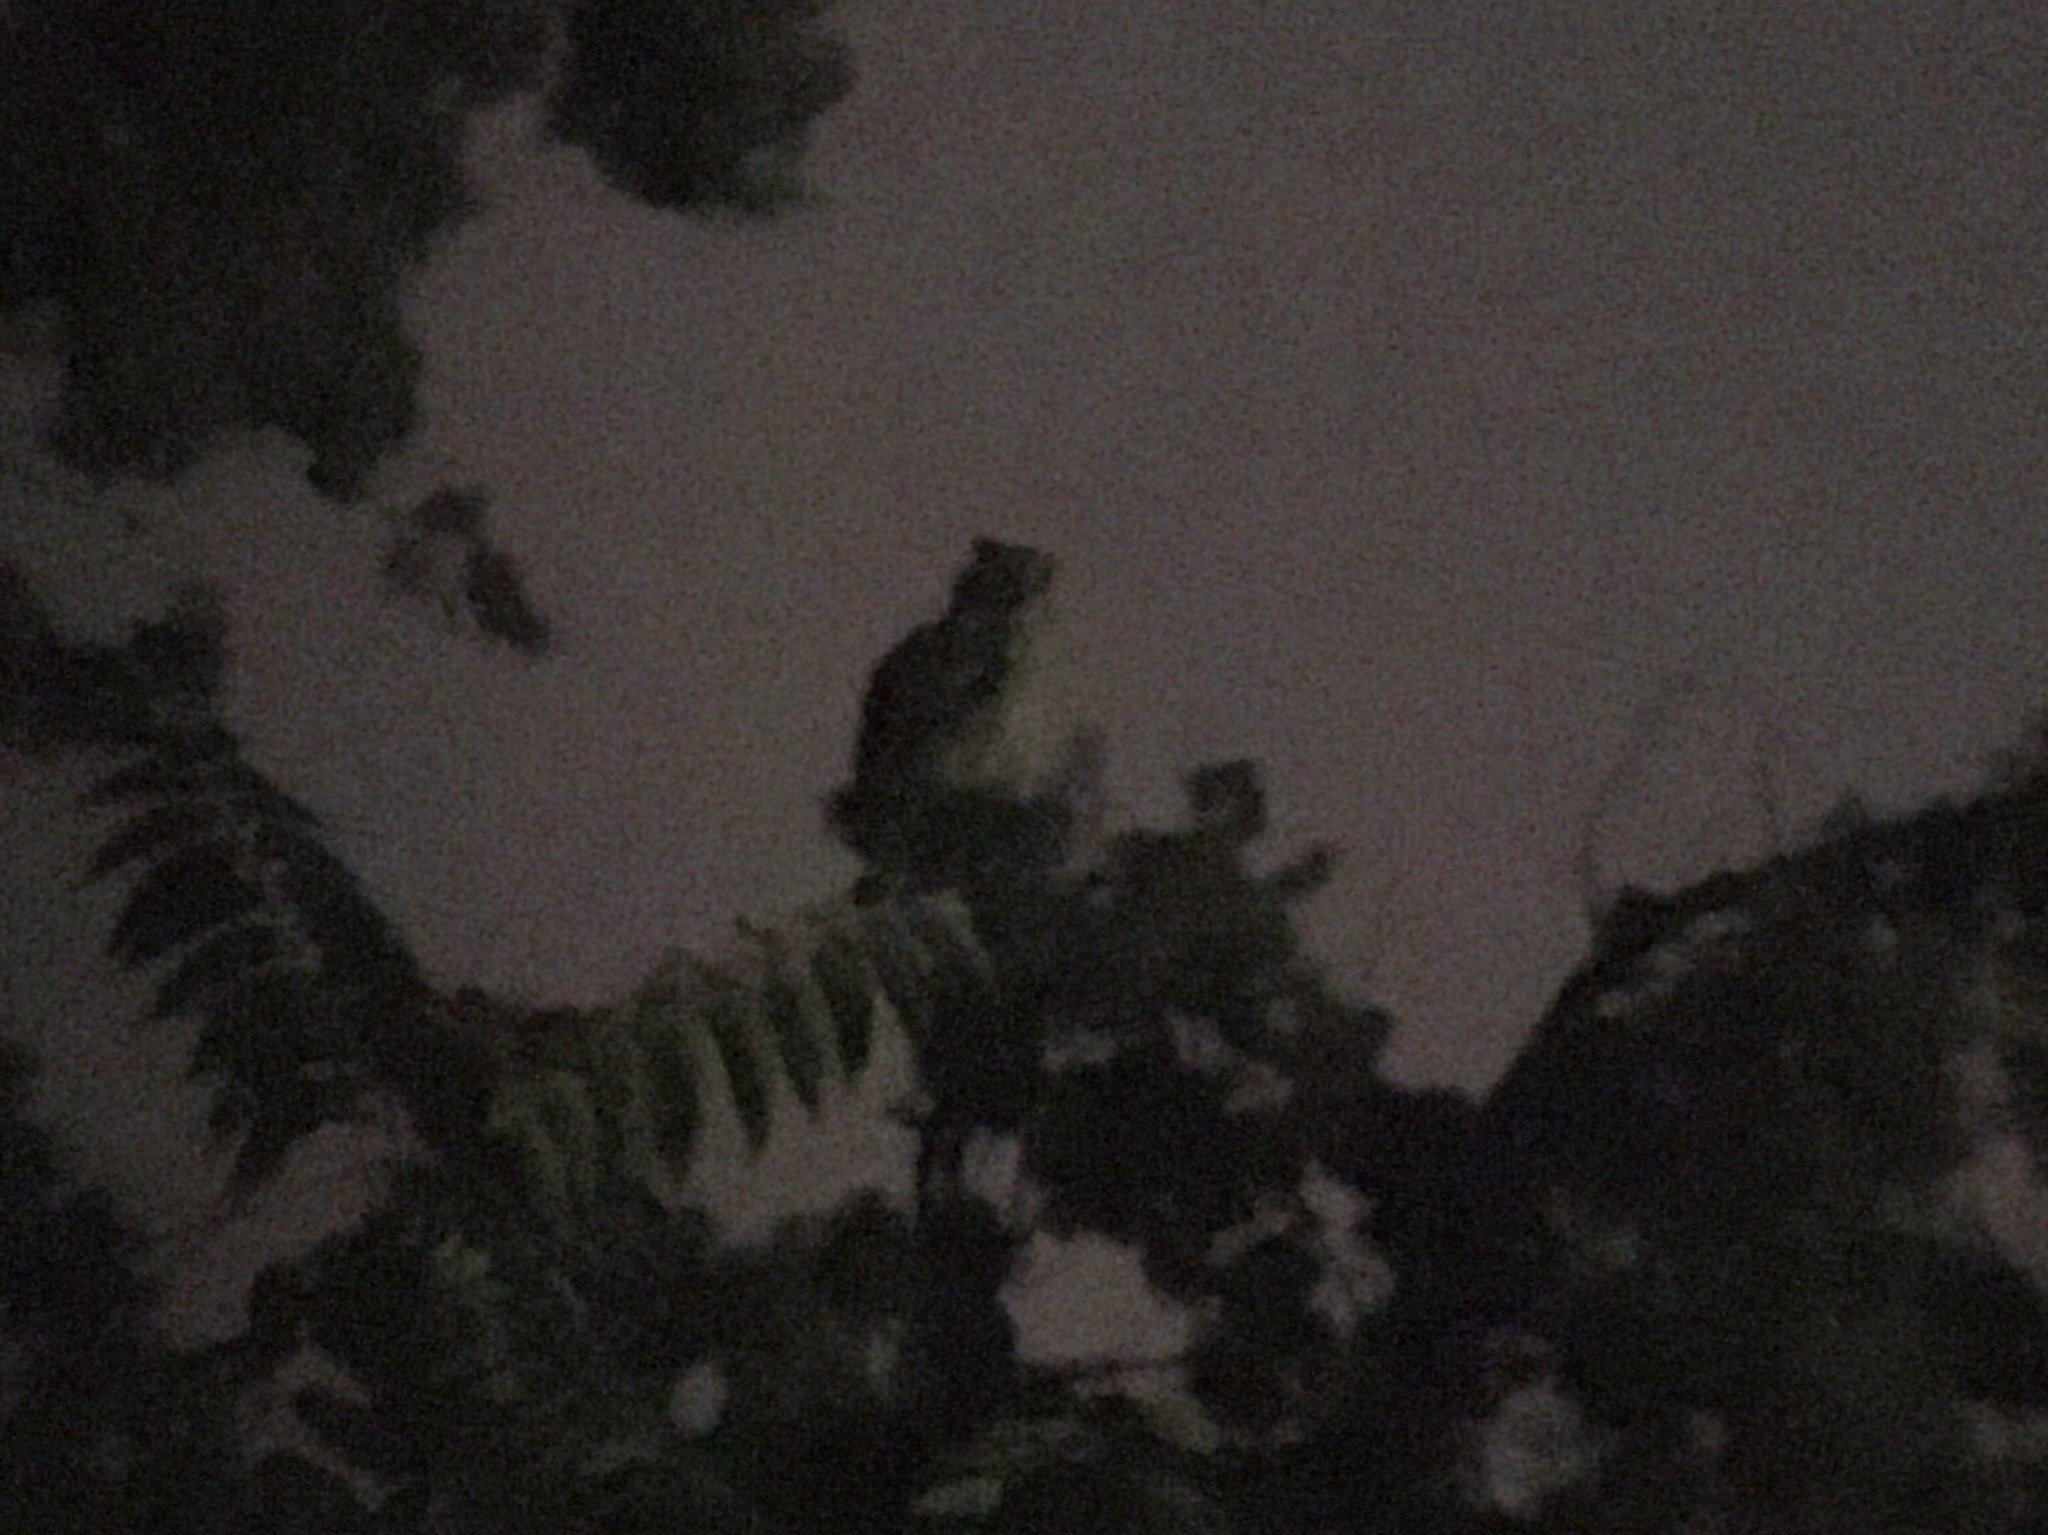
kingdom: Animalia
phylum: Chordata
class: Aves
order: Strigiformes
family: Strigidae
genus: Pseudoscops
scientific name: Pseudoscops clamator
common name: Striped owl
